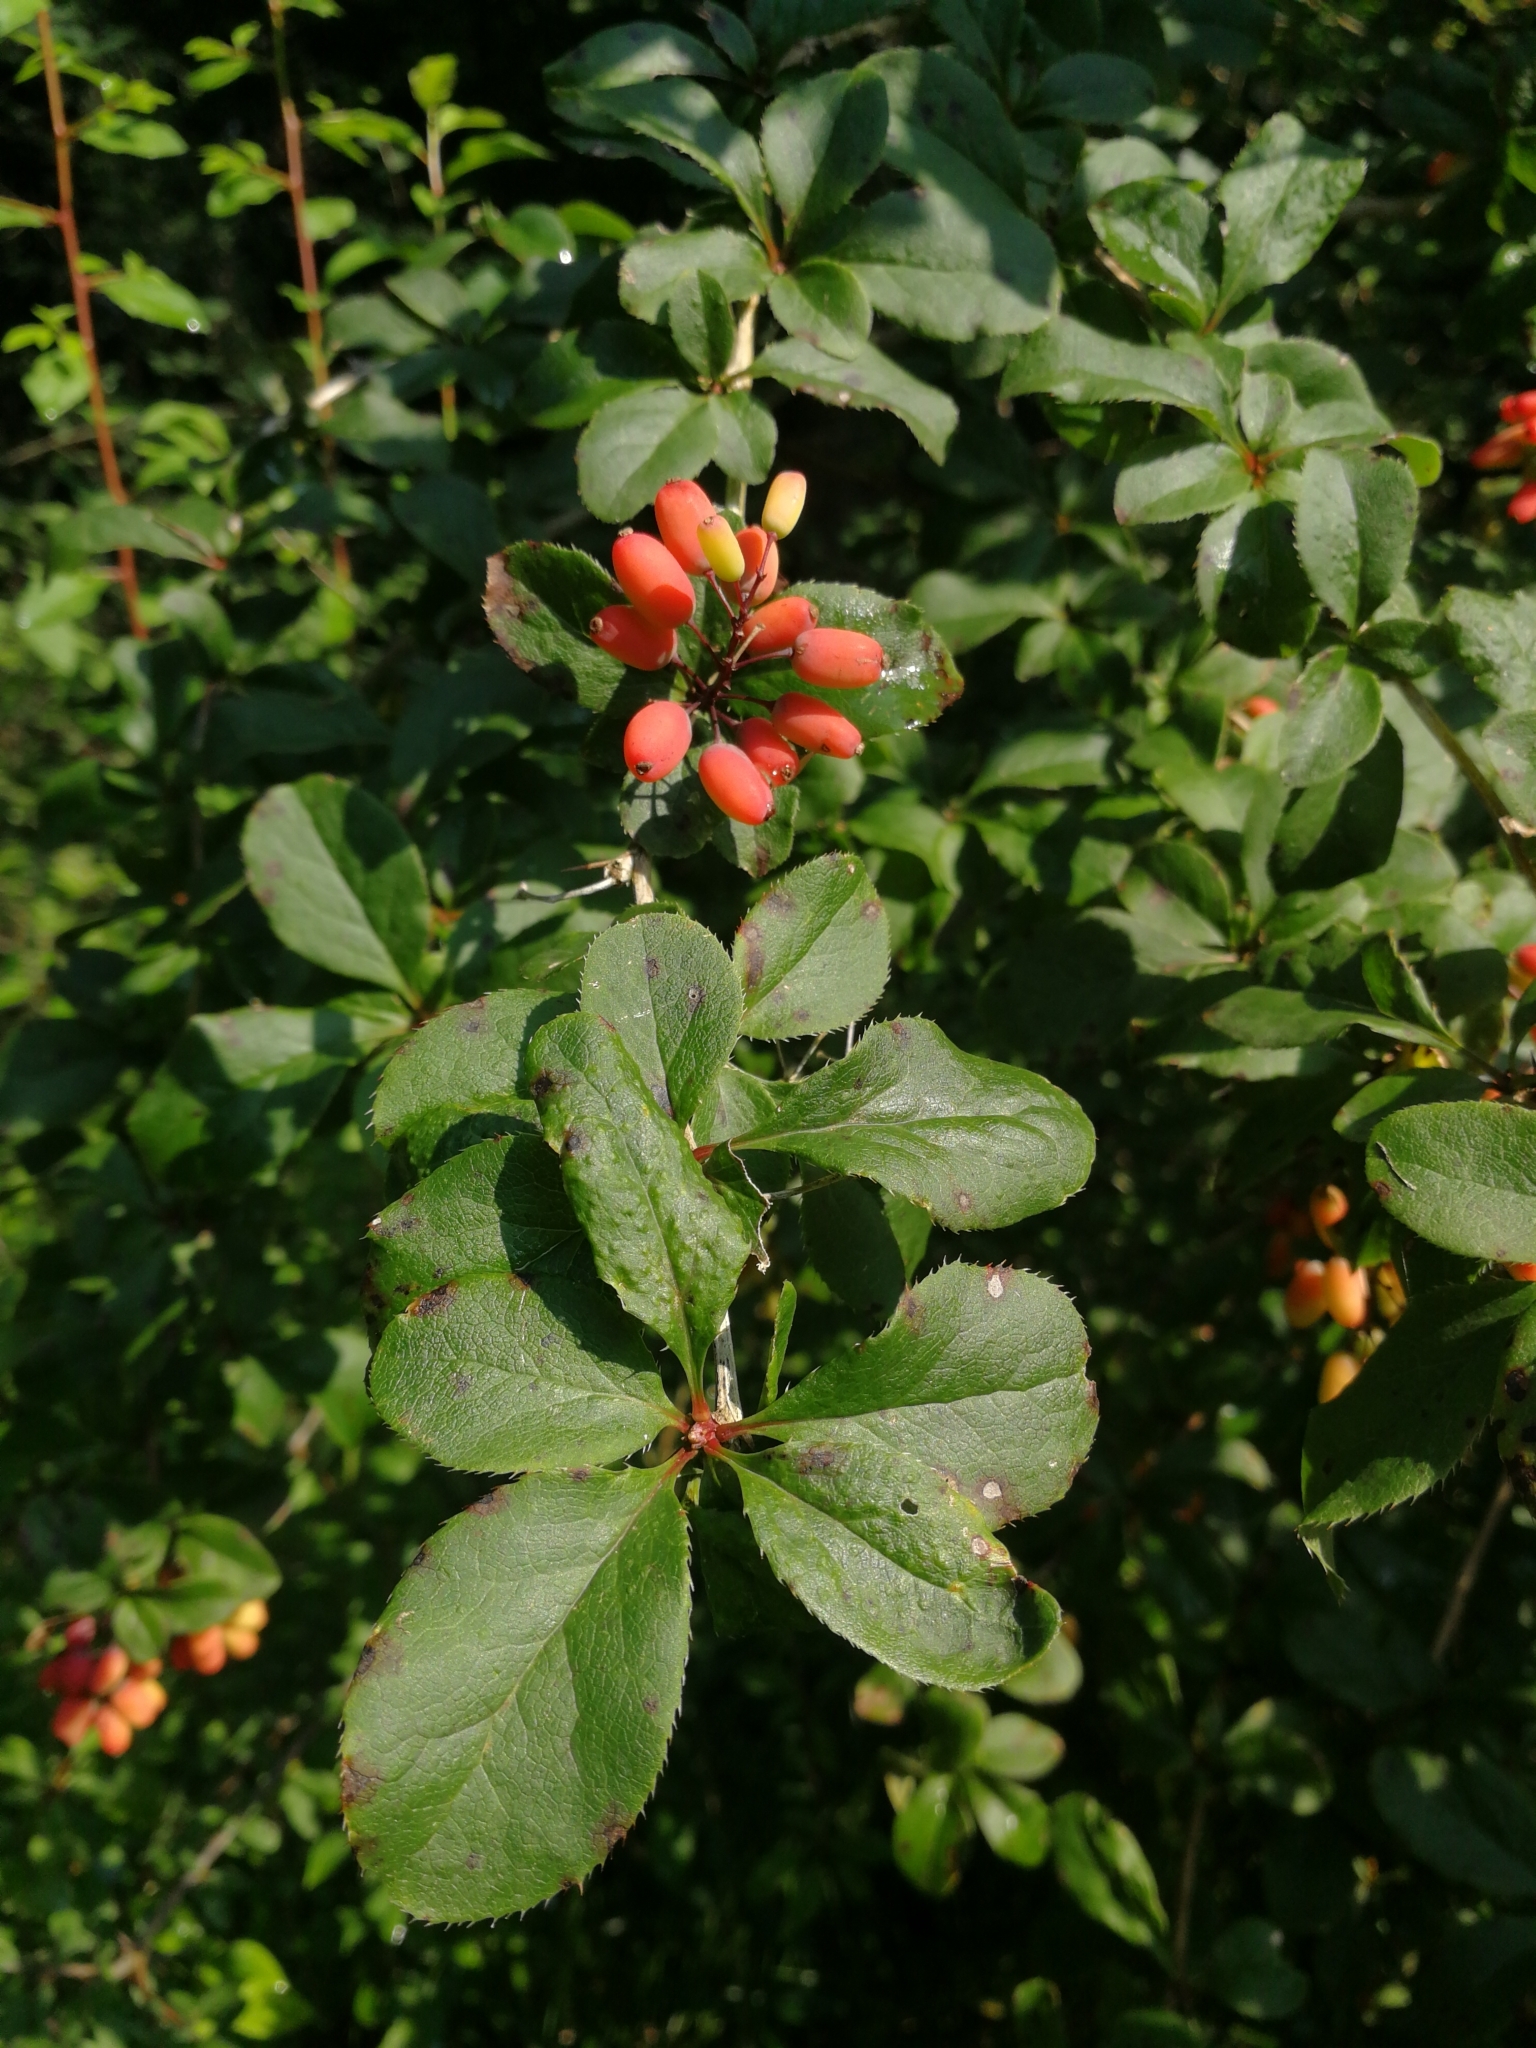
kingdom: Plantae
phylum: Tracheophyta
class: Magnoliopsida
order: Ranunculales
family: Berberidaceae
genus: Berberis
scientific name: Berberis vulgaris
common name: Barberry
